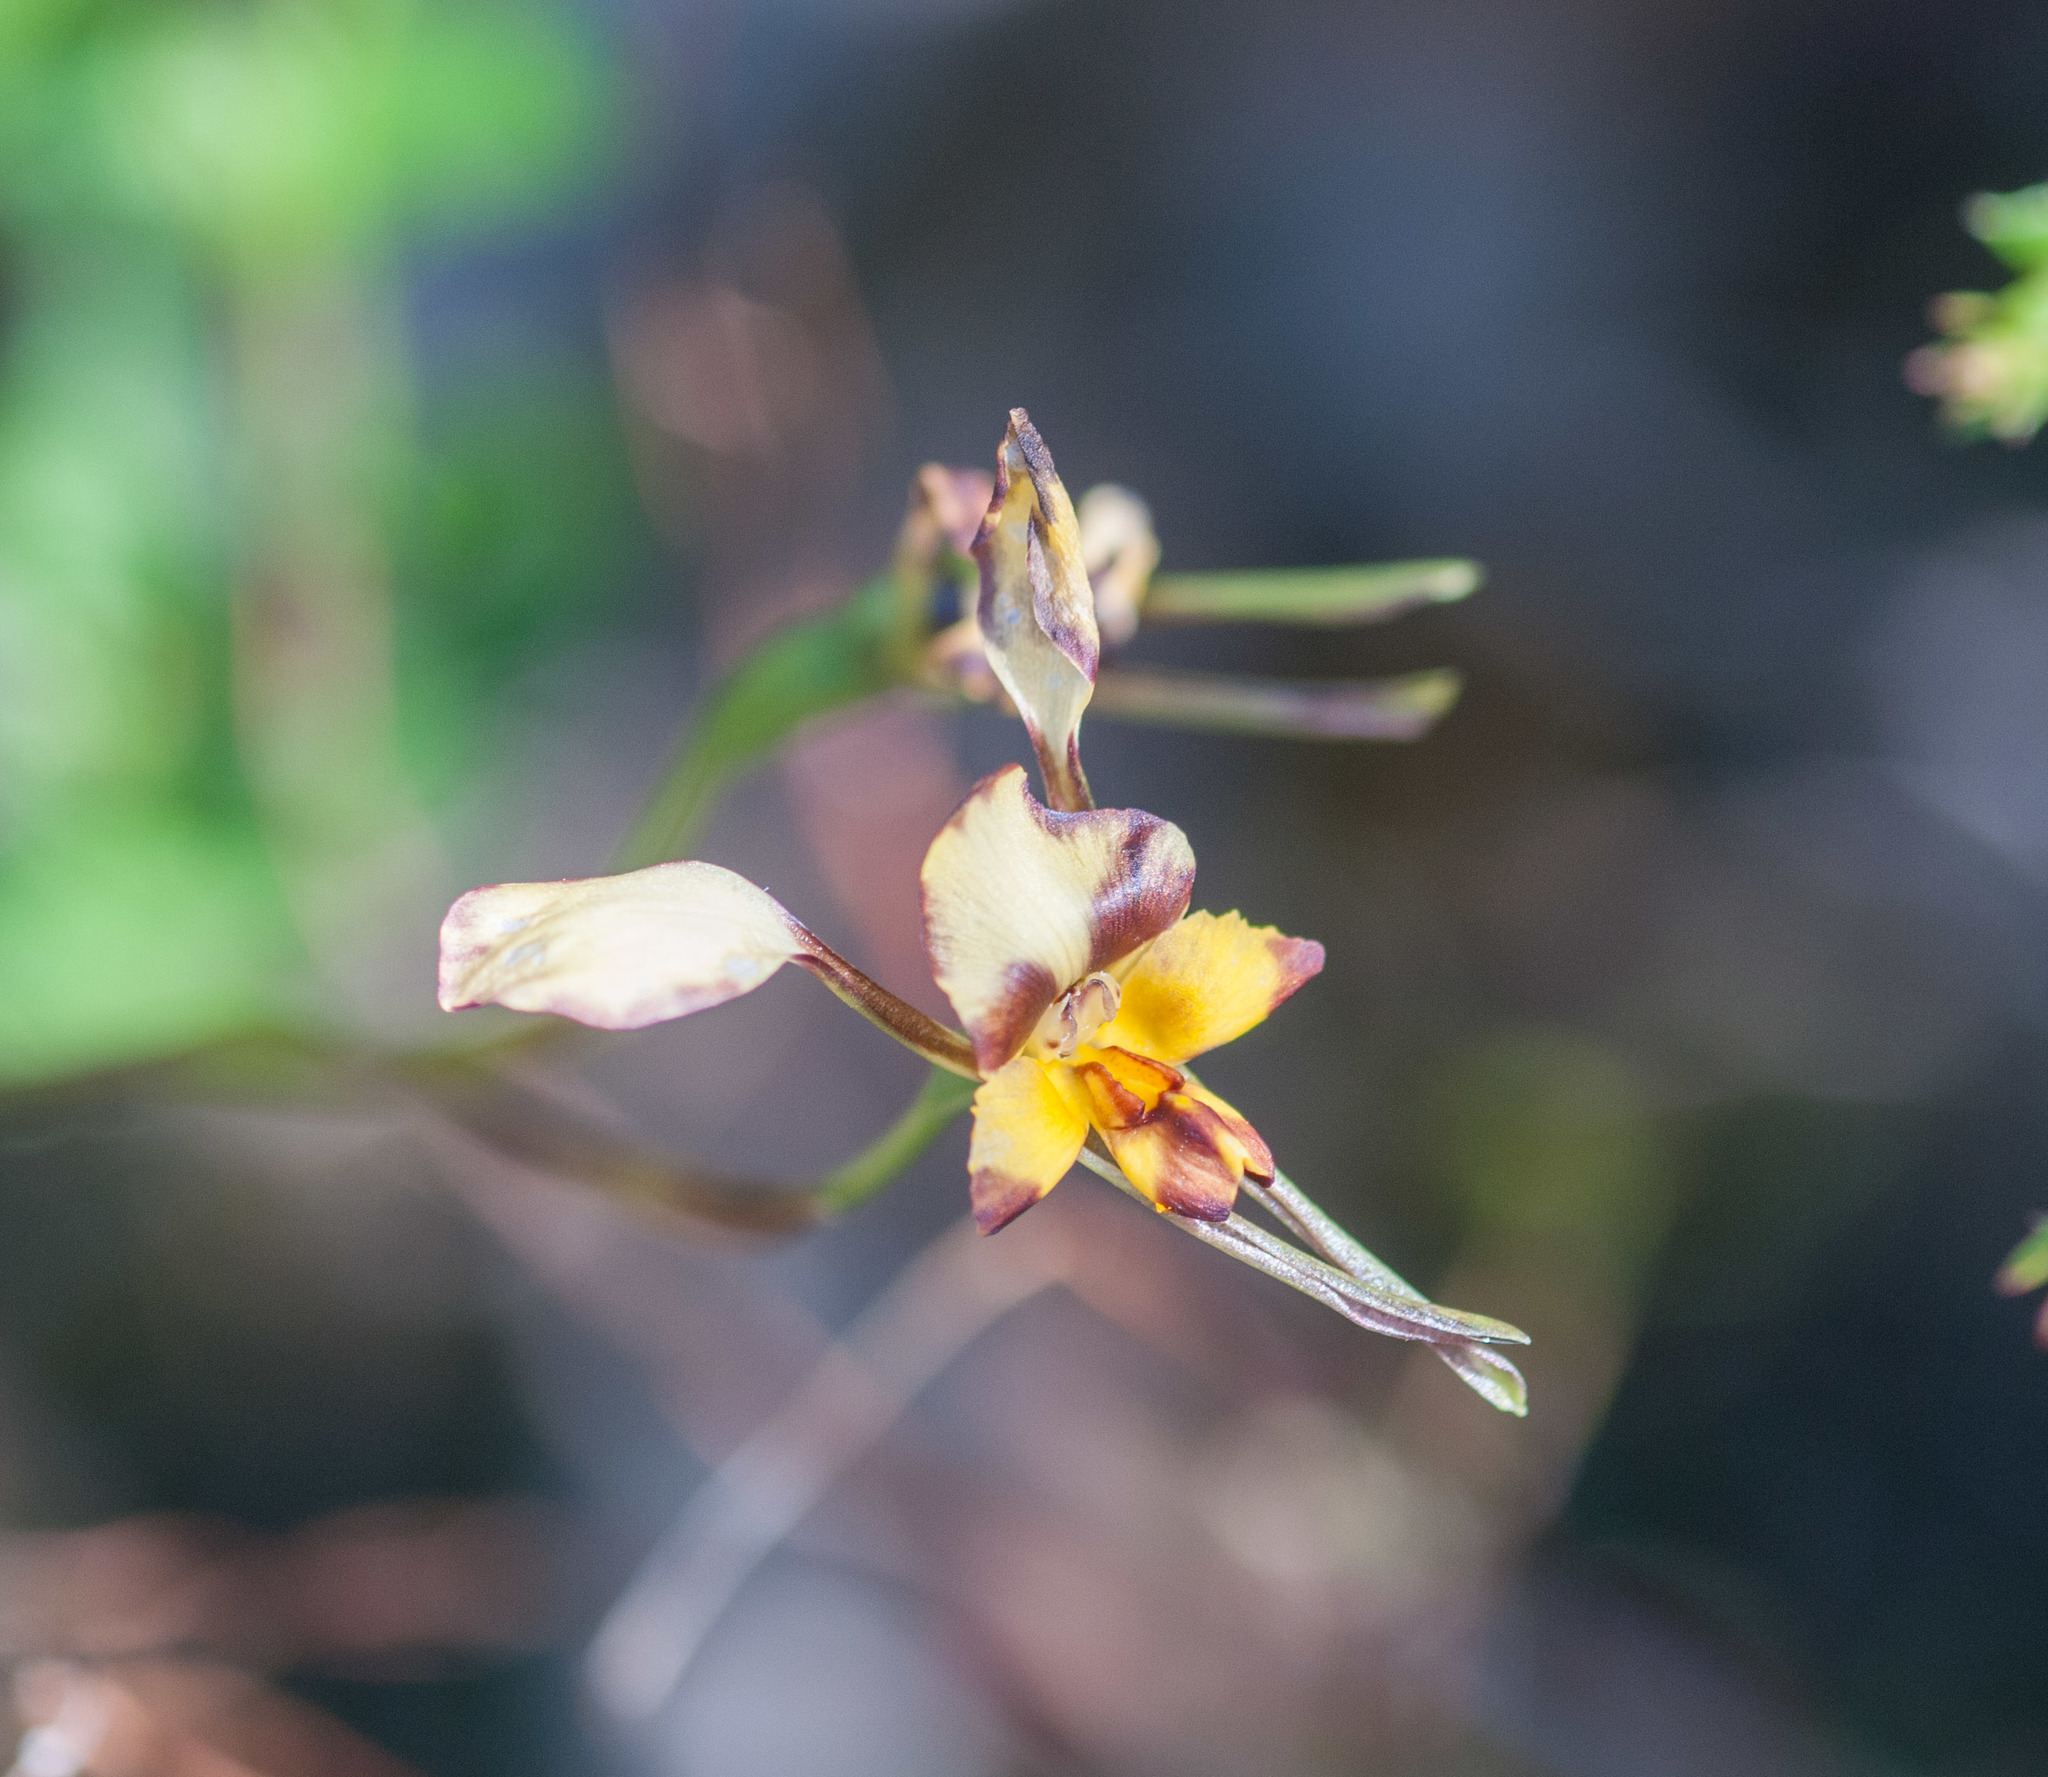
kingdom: Plantae
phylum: Tracheophyta
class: Liliopsida
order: Asparagales
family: Orchidaceae
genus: Diuris
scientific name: Diuris pardina
